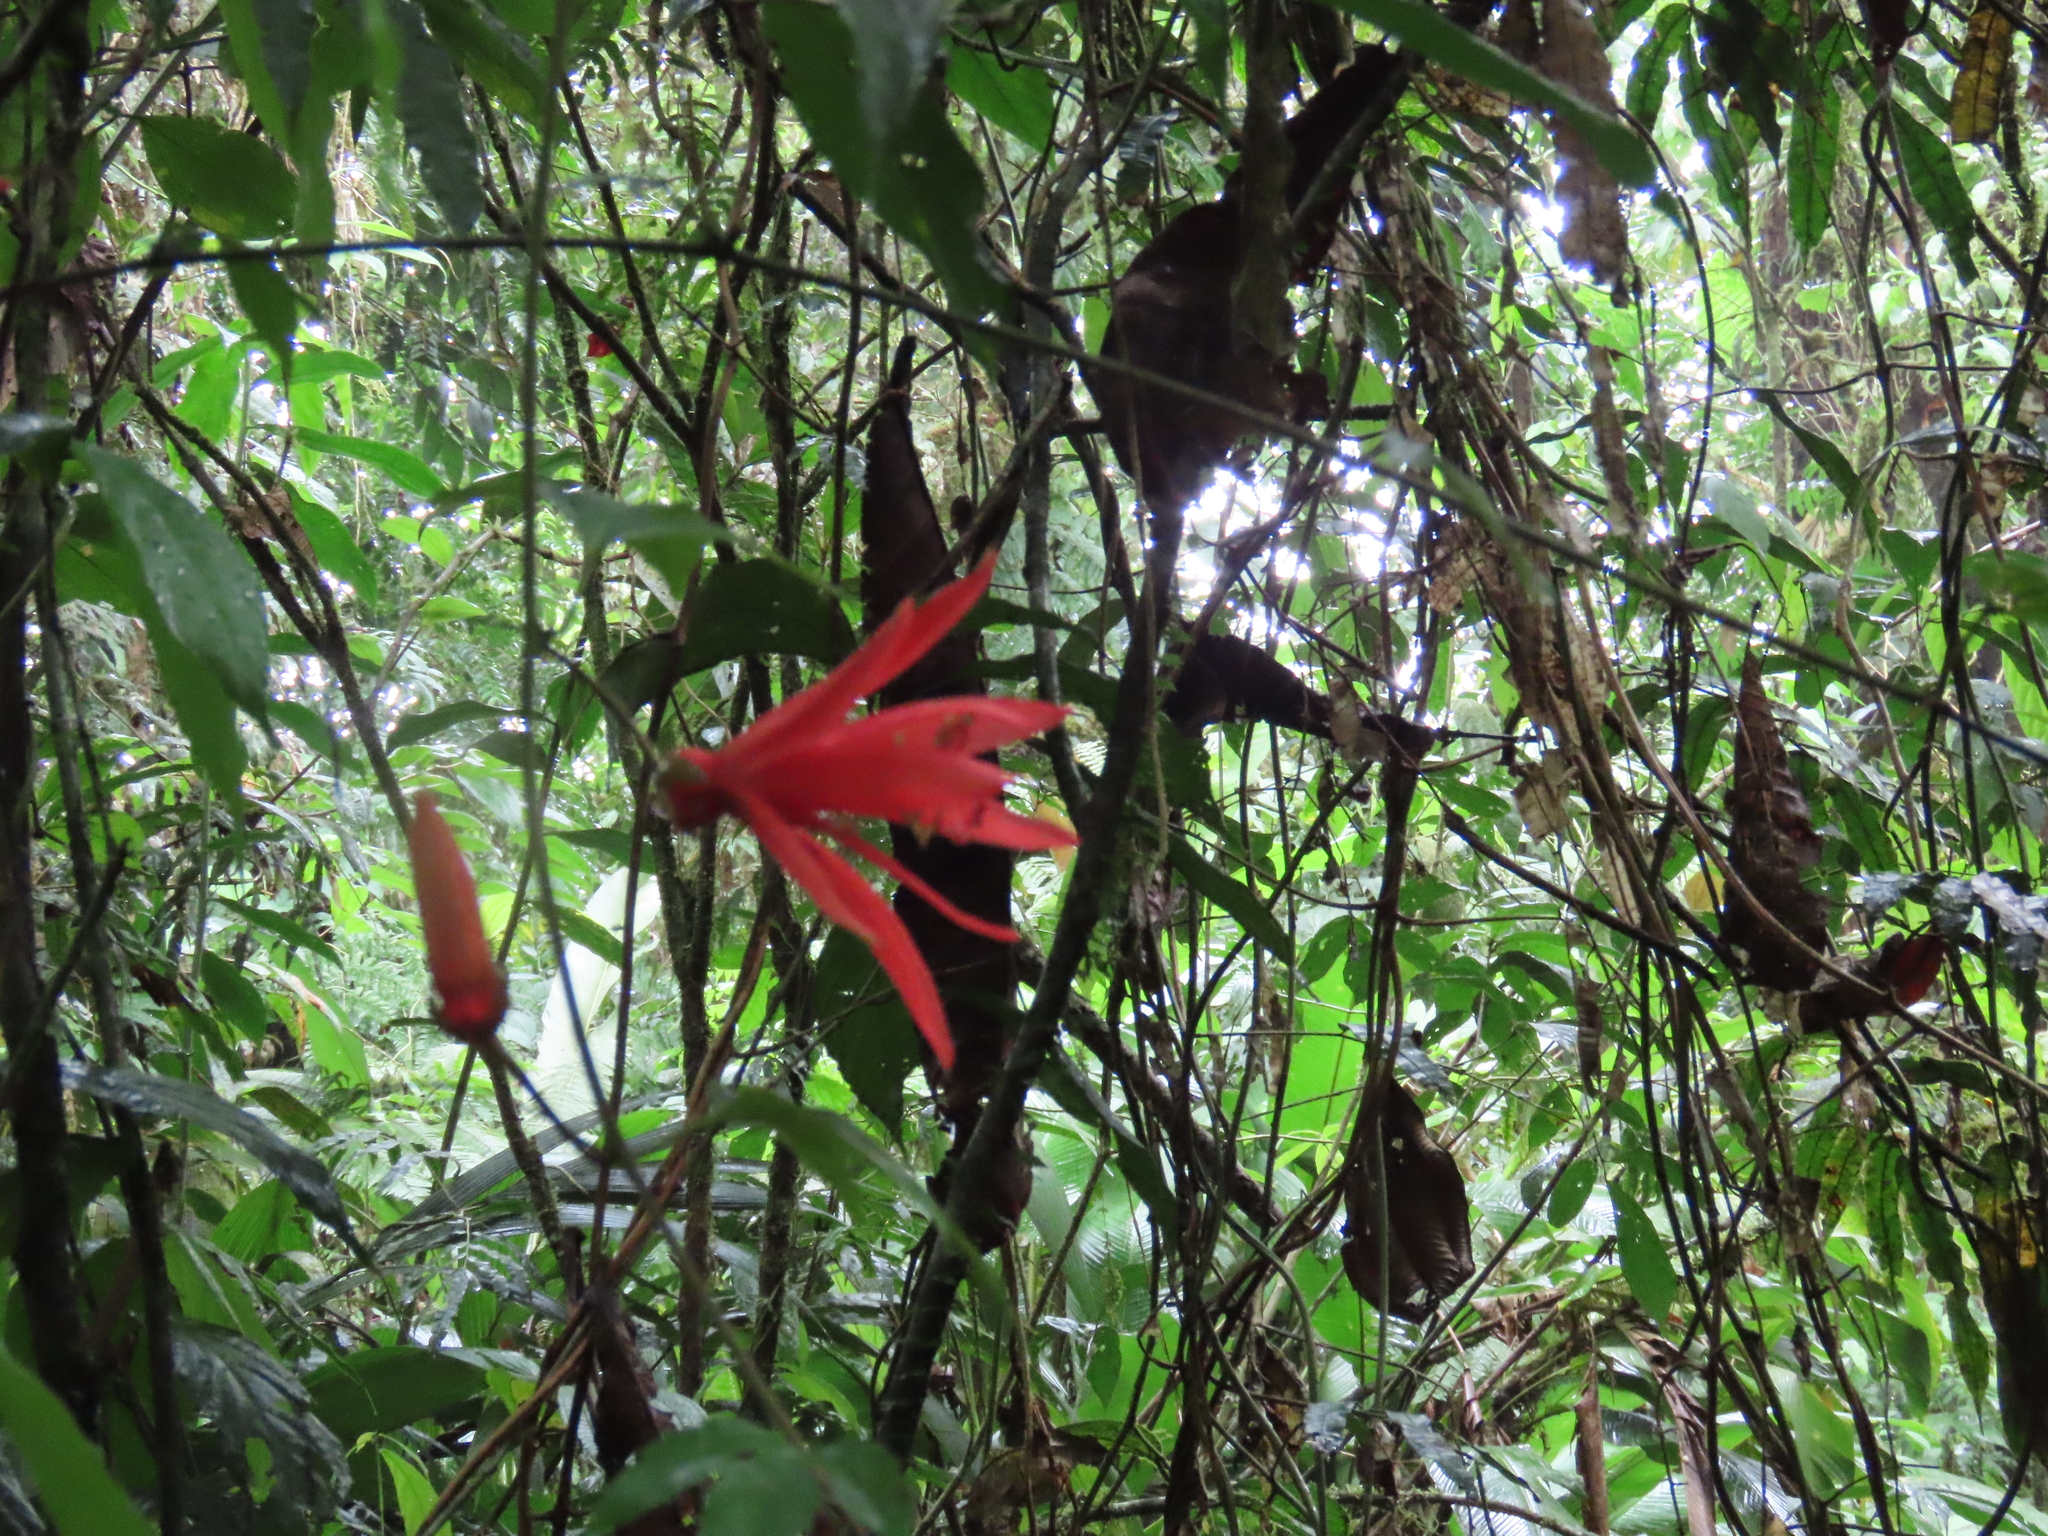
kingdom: Plantae
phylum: Tracheophyta
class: Magnoliopsida
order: Malpighiales
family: Passifloraceae
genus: Passiflora
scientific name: Passiflora vitifolia
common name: Perfumed passionflower
